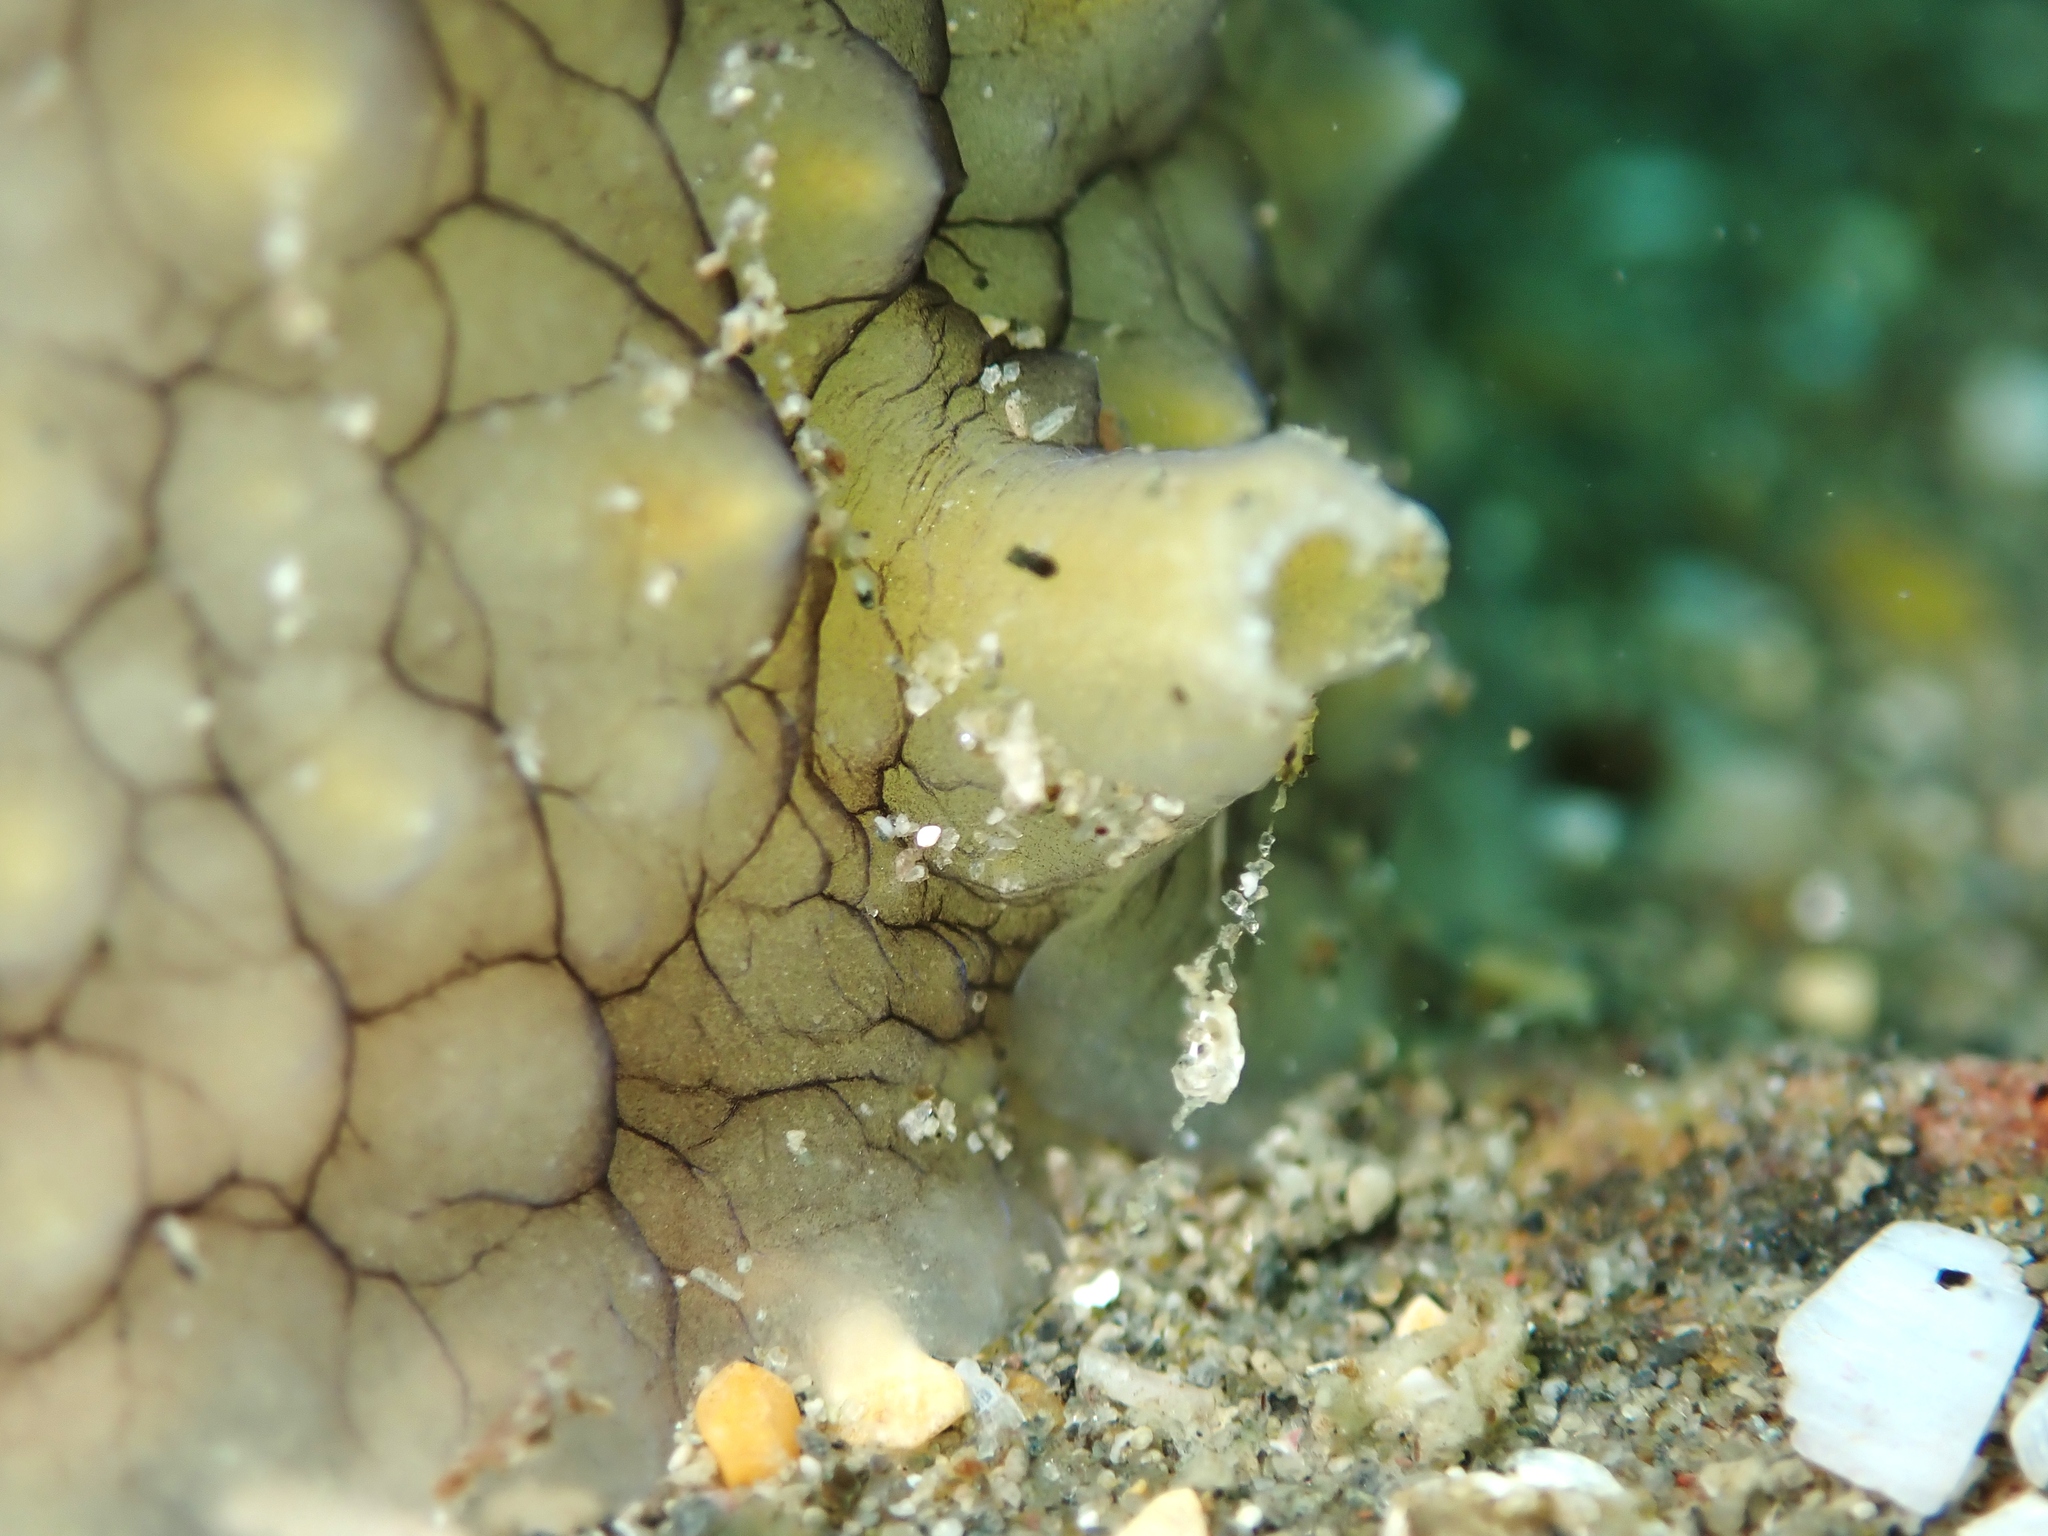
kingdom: Animalia
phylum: Mollusca
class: Gastropoda
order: Littorinimorpha
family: Velutinidae
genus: Variolipallium
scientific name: Variolipallium cerebroides
